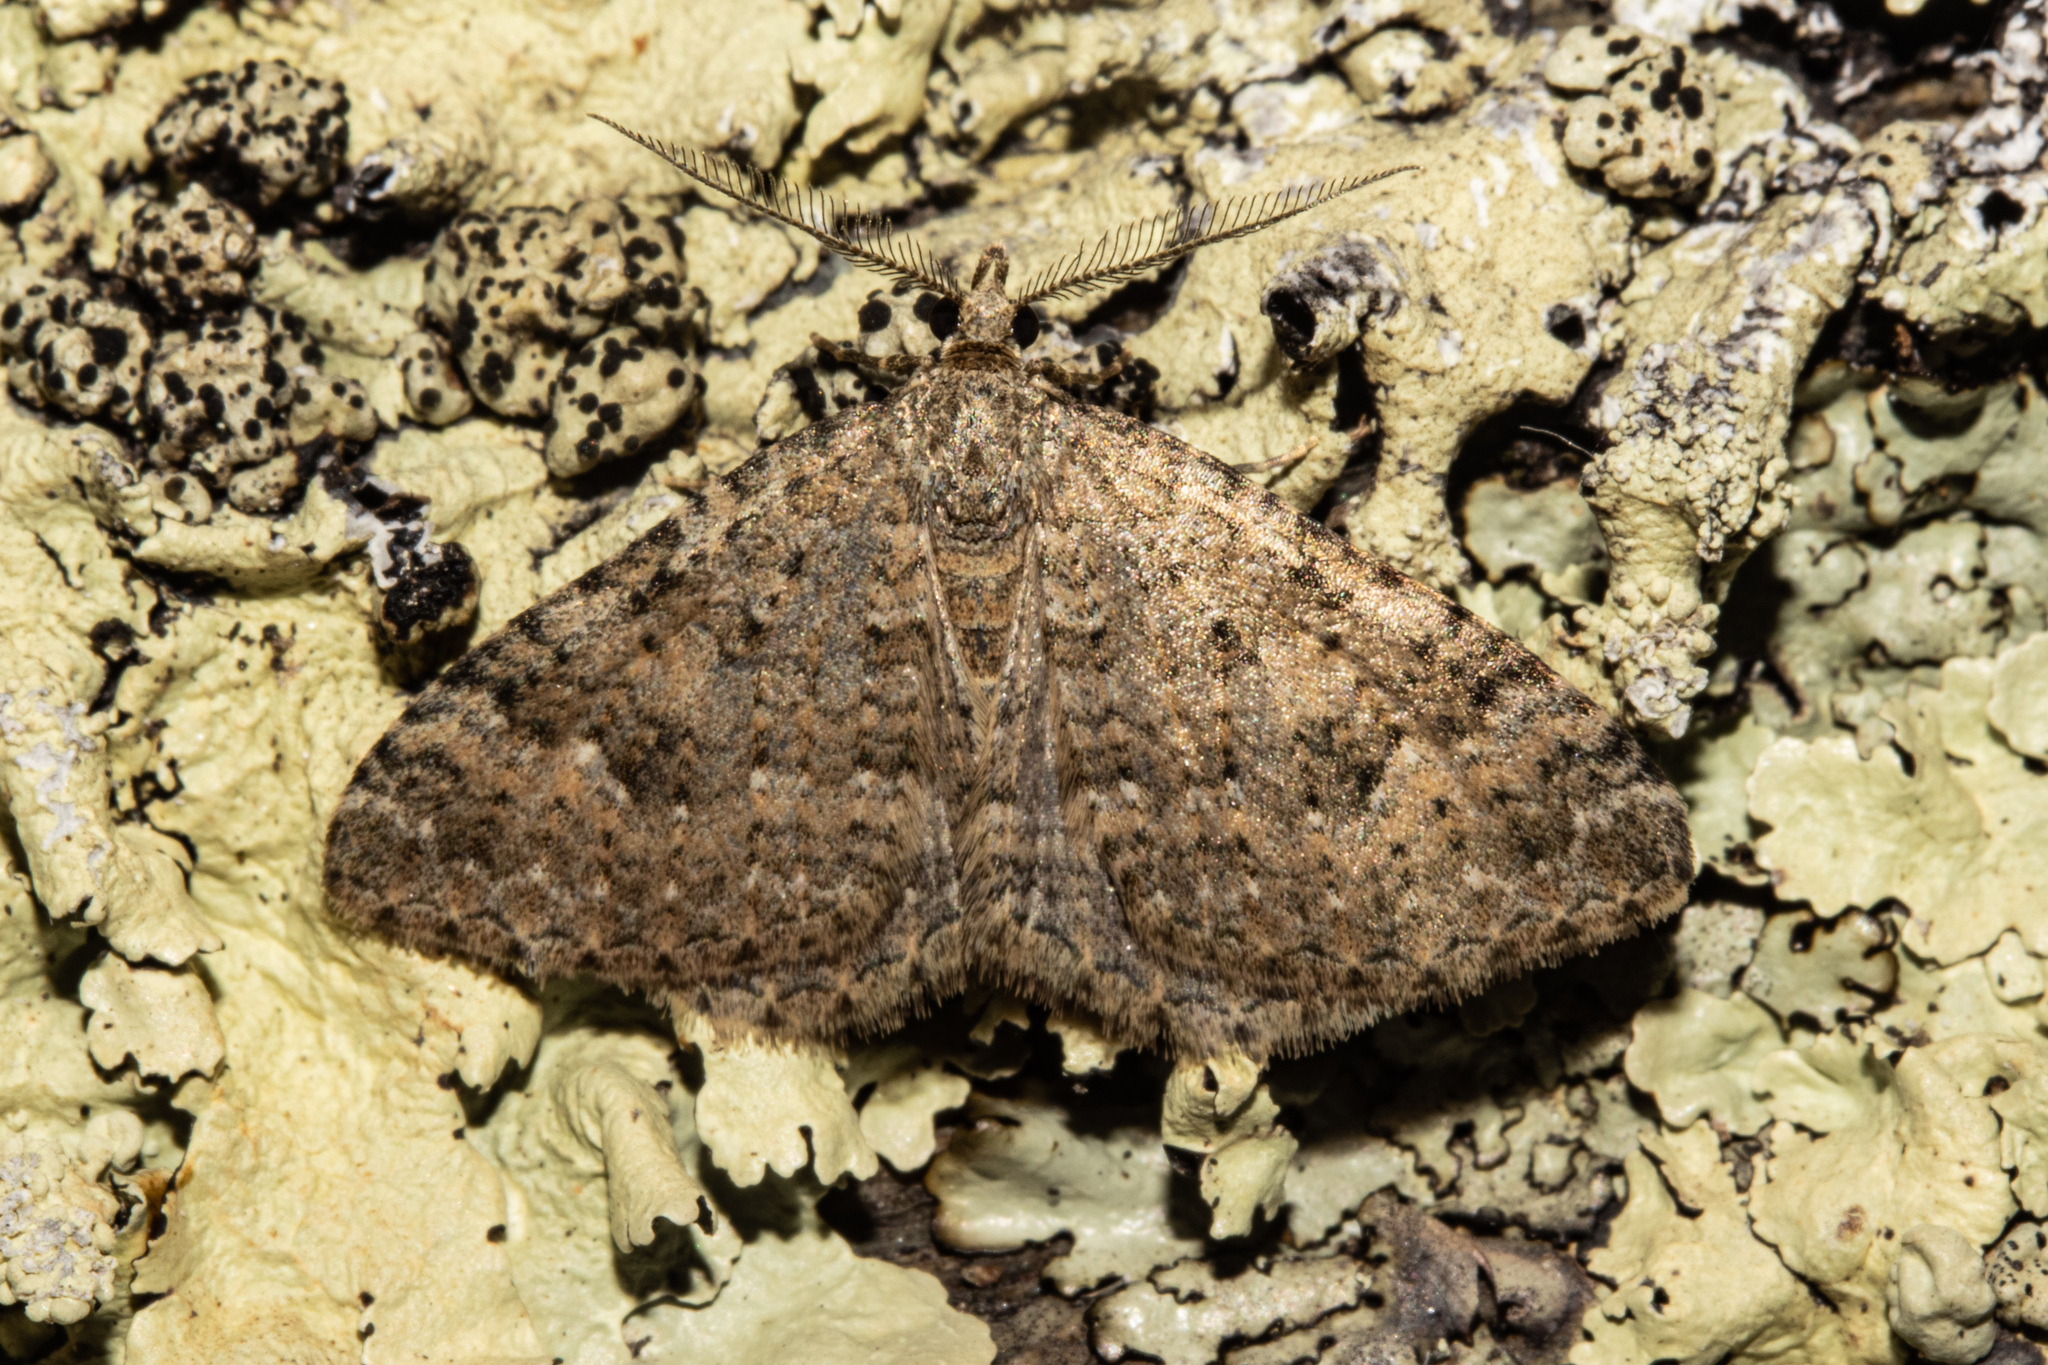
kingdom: Animalia
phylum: Arthropoda
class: Insecta
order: Lepidoptera
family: Geometridae
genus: Helastia
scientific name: Helastia corcularia
